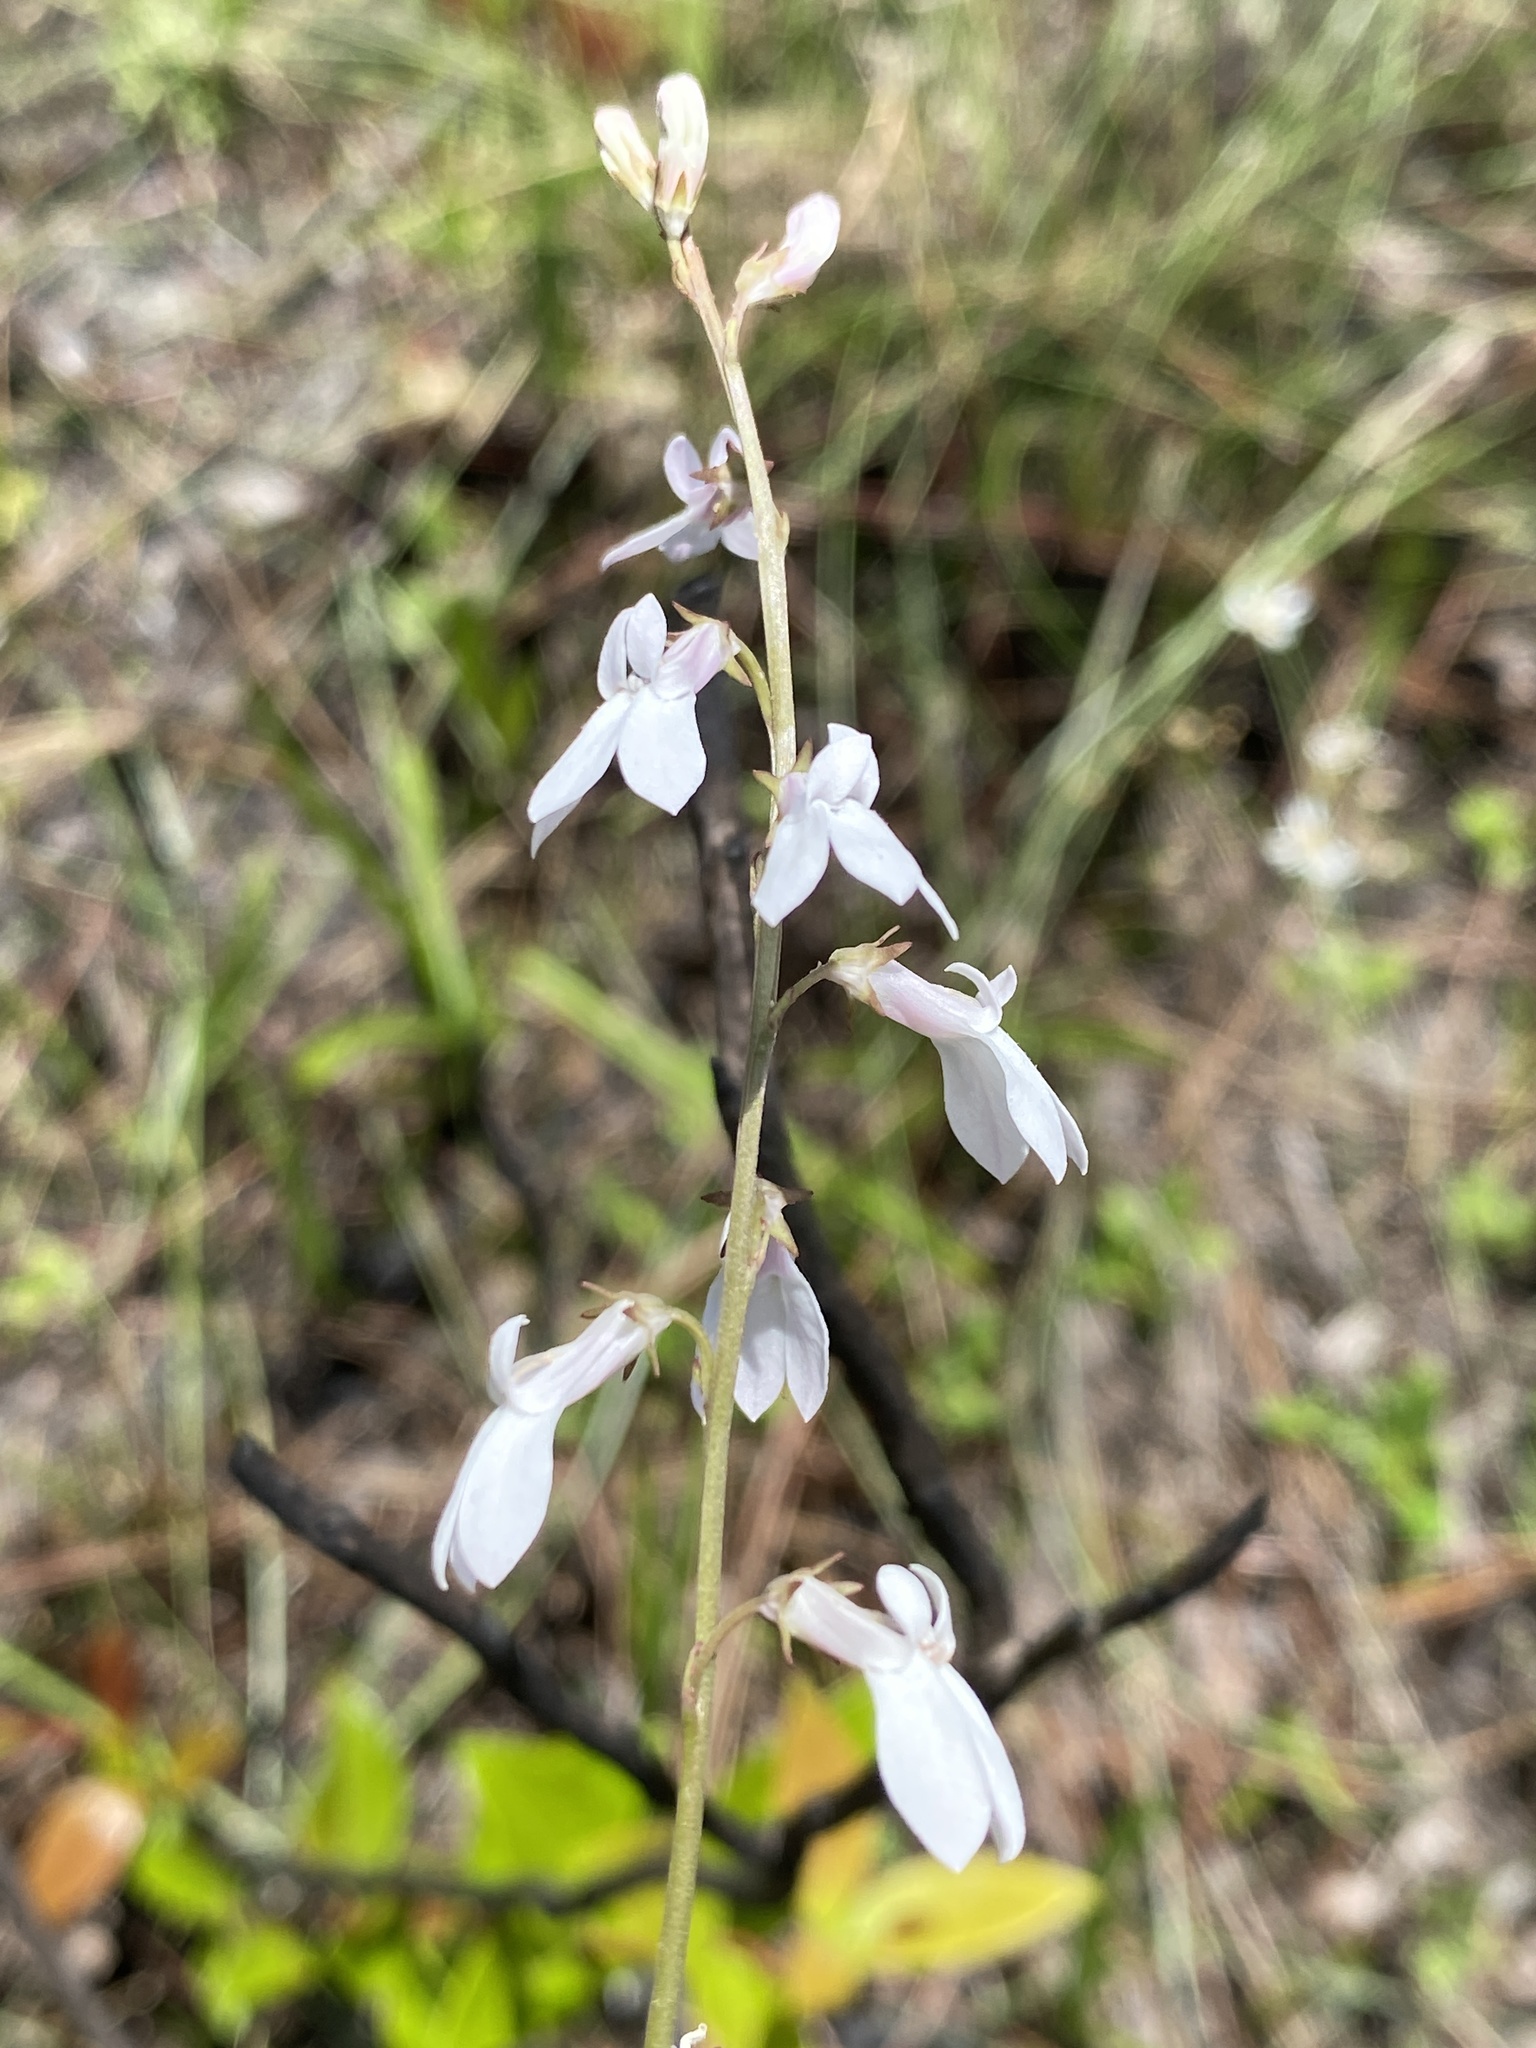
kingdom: Plantae
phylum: Tracheophyta
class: Magnoliopsida
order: Asterales
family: Campanulaceae
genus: Lobelia
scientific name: Lobelia paludosa
